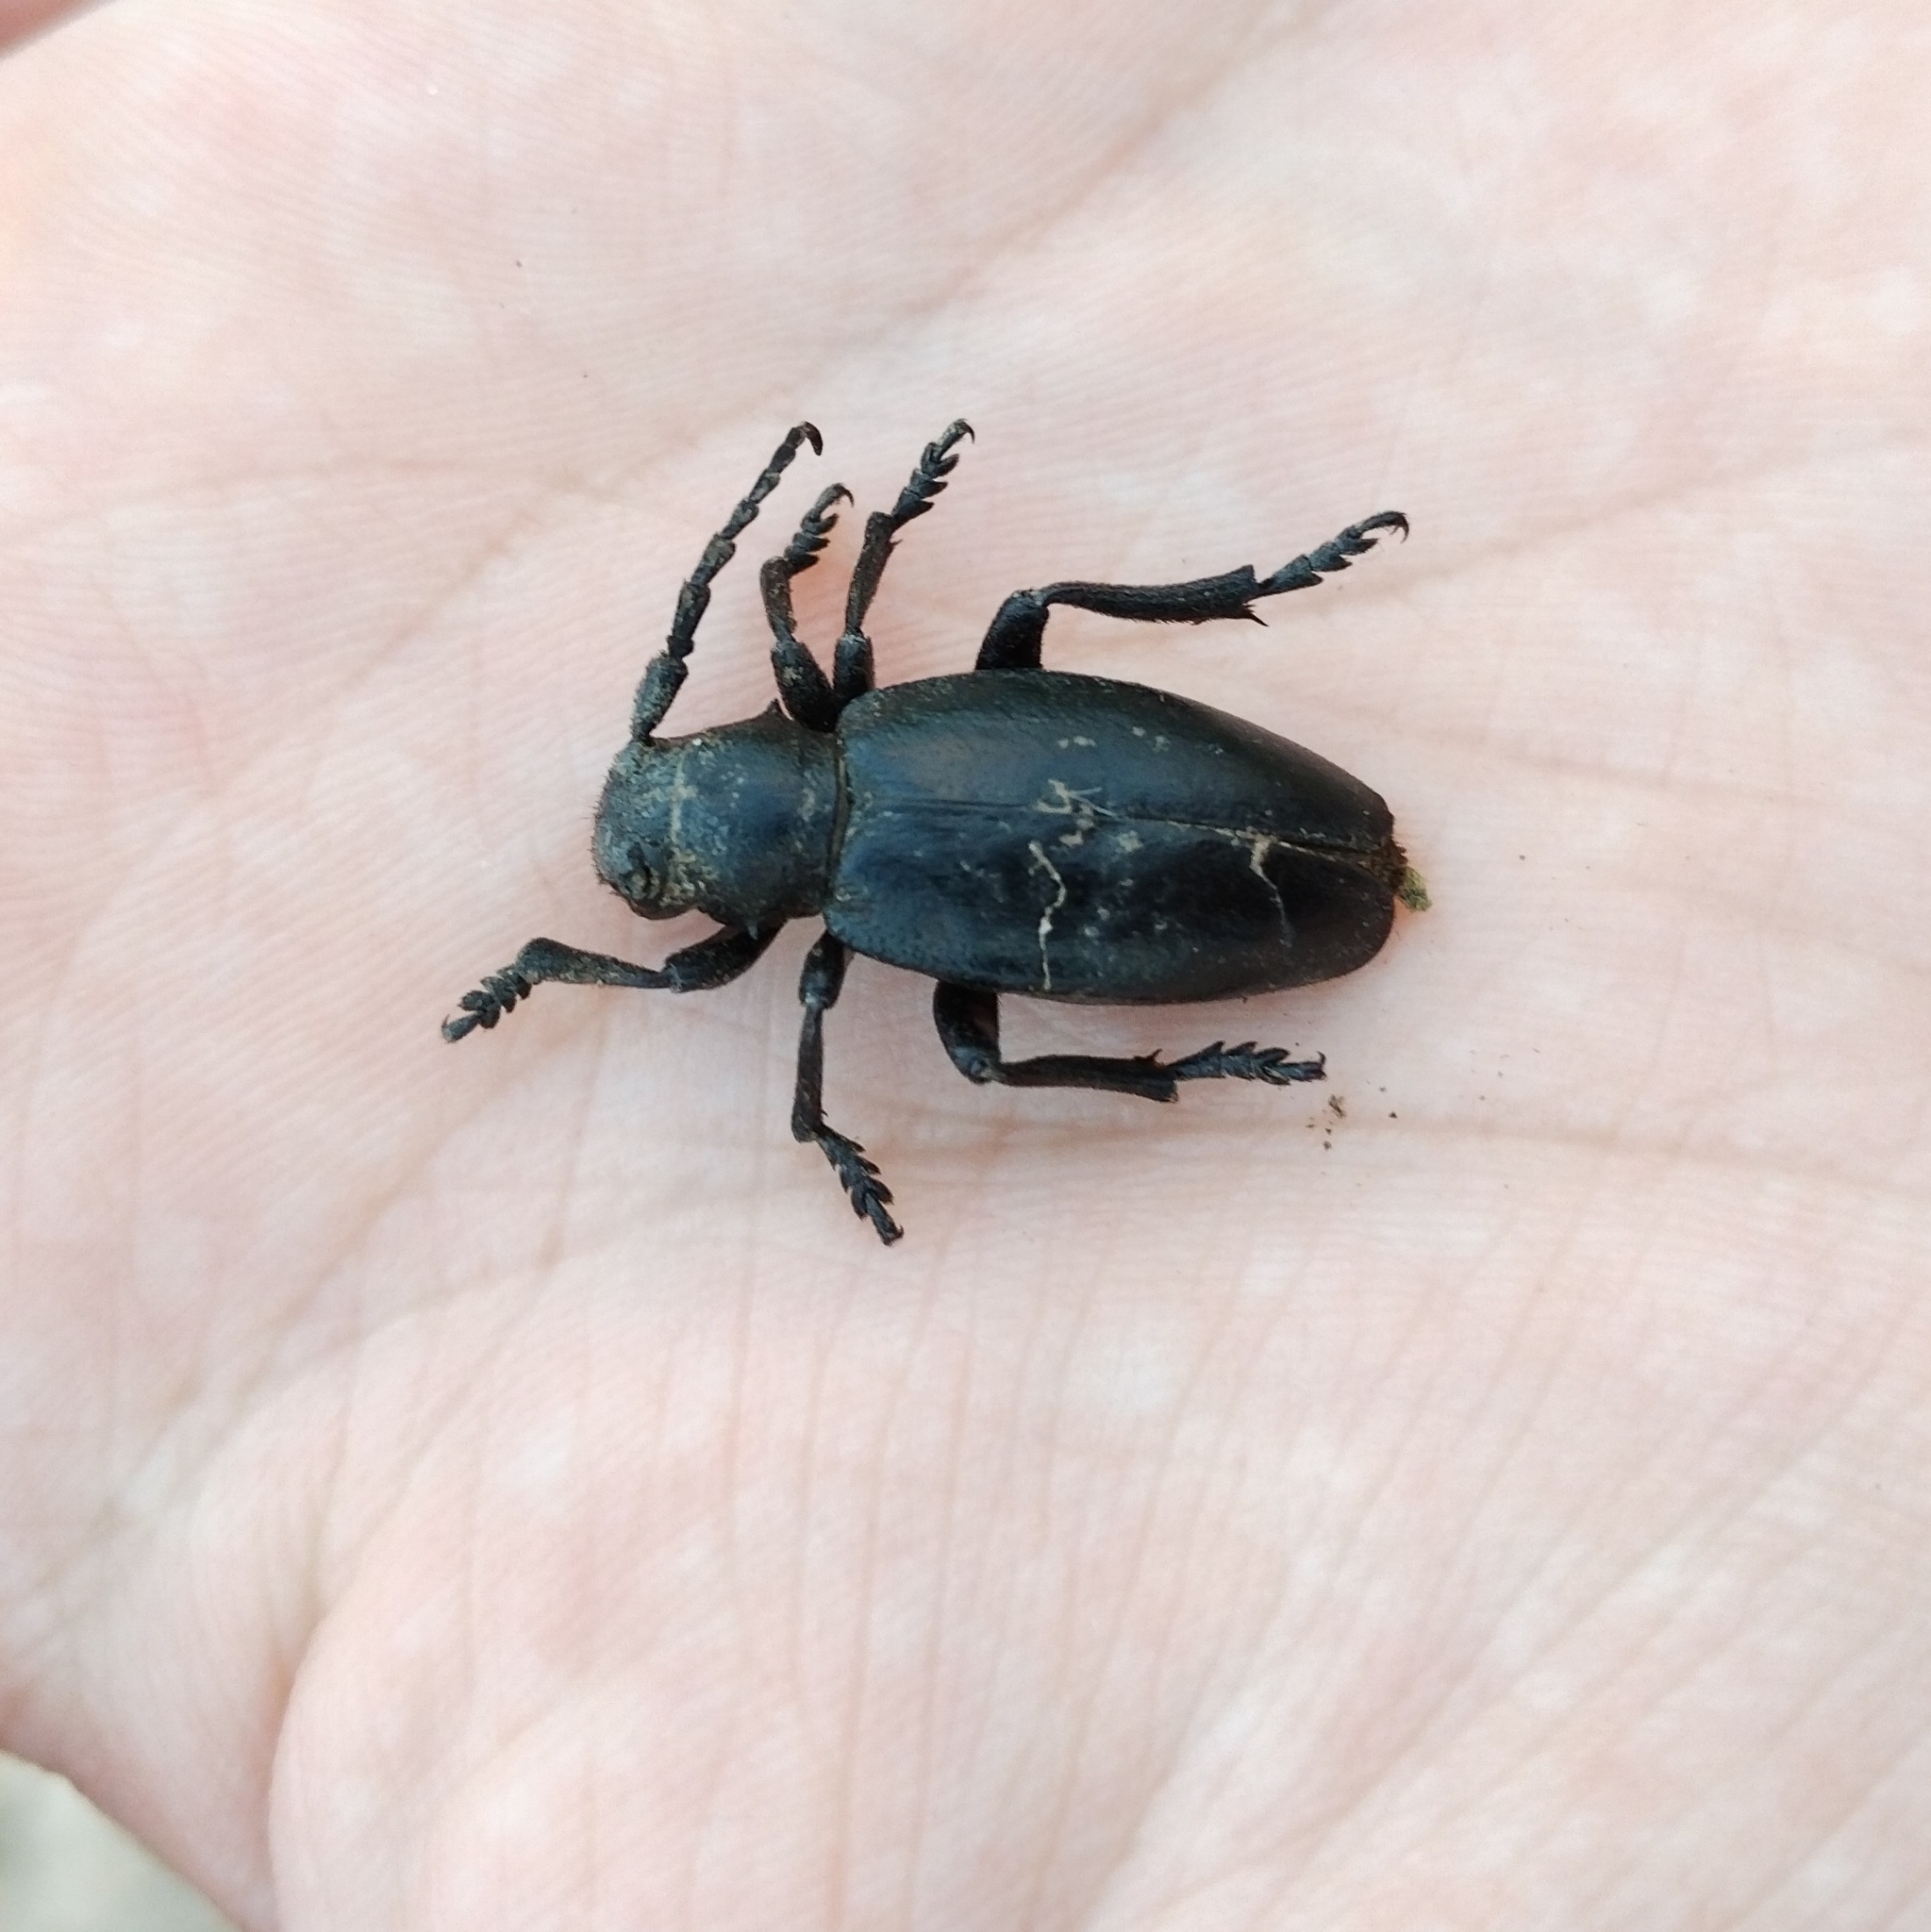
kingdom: Animalia
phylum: Arthropoda
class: Insecta
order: Coleoptera
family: Cerambycidae
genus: Dorcadion
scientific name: Dorcadion lugubre
